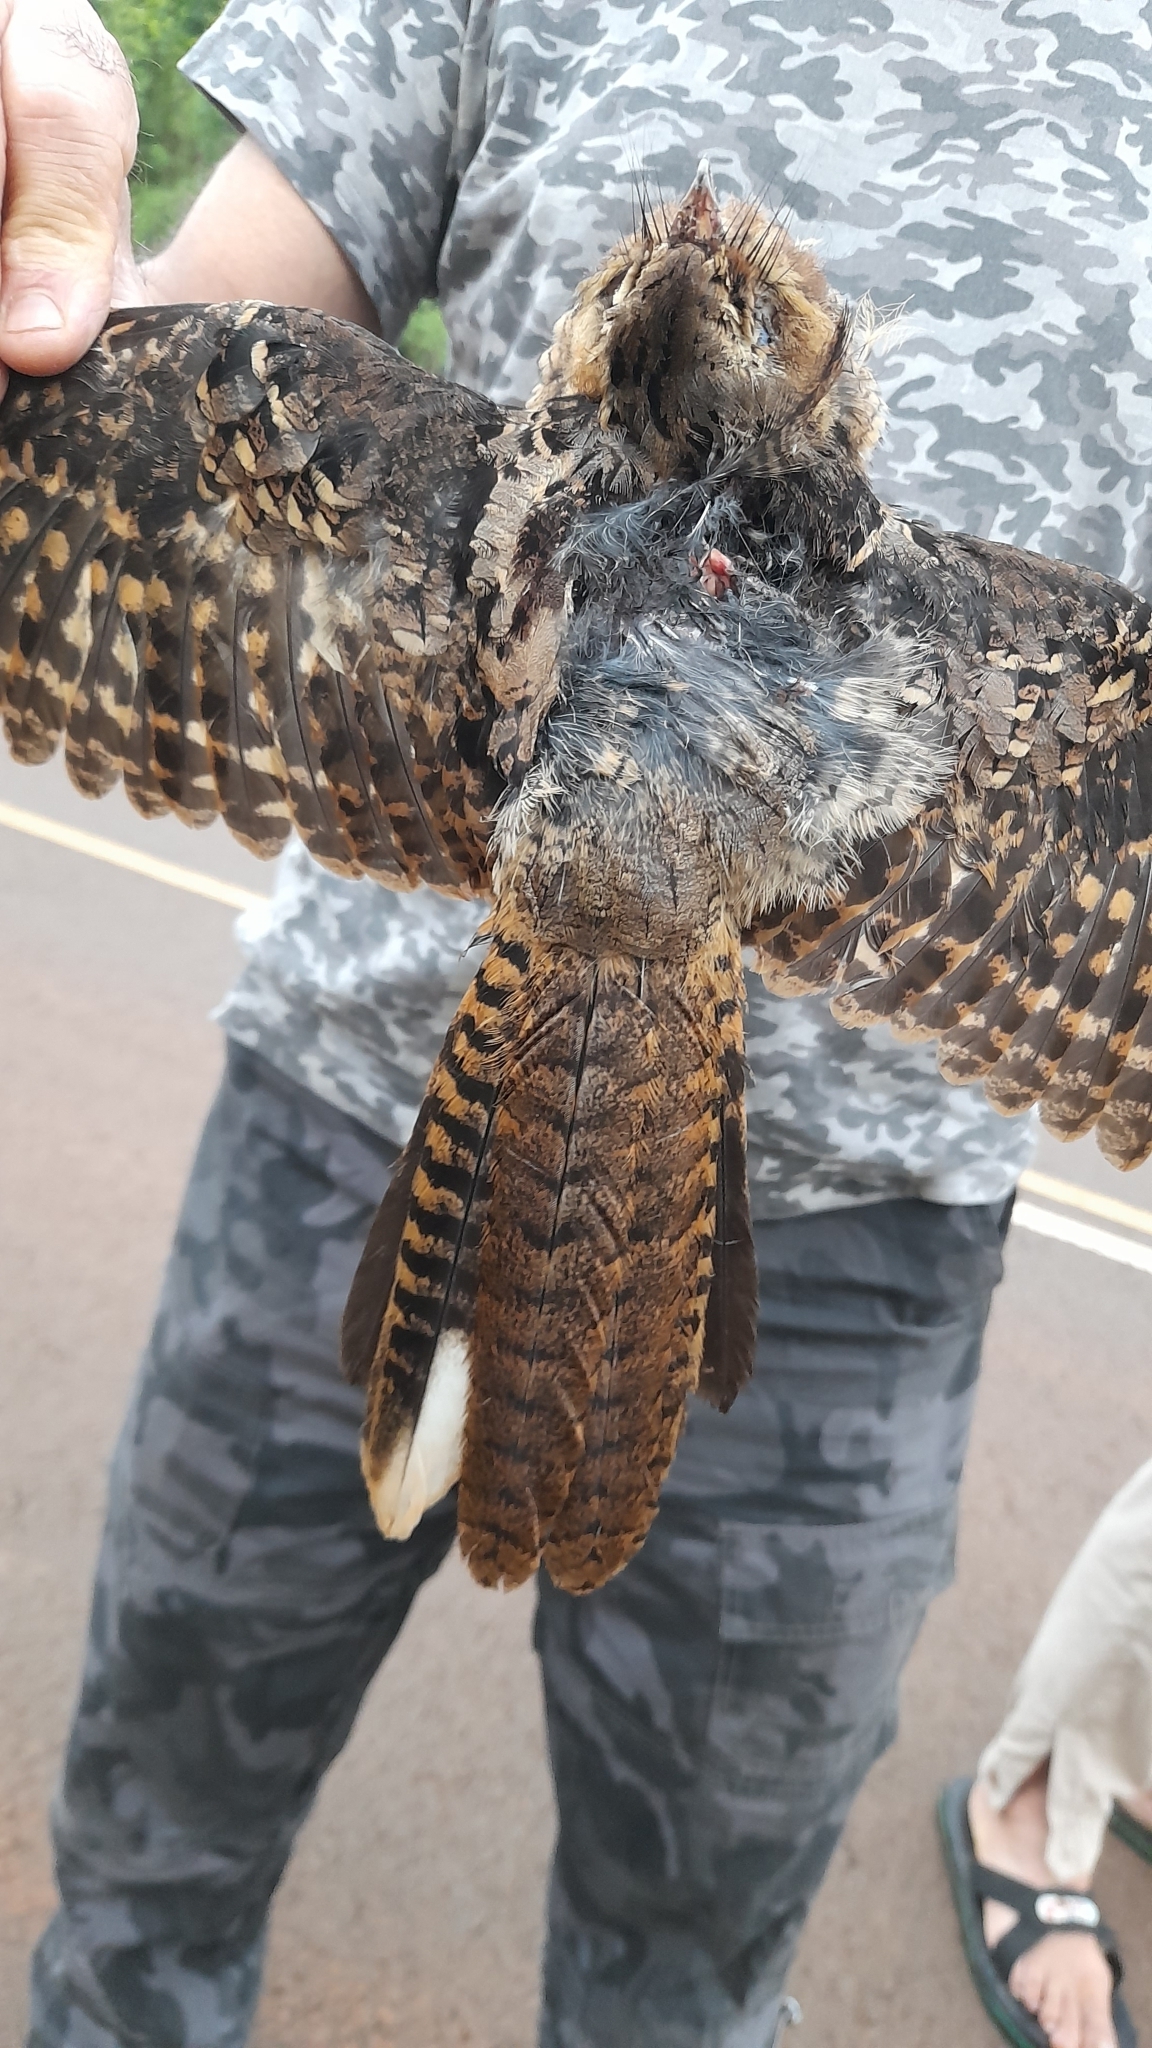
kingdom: Animalia
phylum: Chordata
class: Aves
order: Caprimulgiformes
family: Caprimulgidae
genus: Nyctidromus
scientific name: Nyctidromus albicollis
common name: Pauraque
